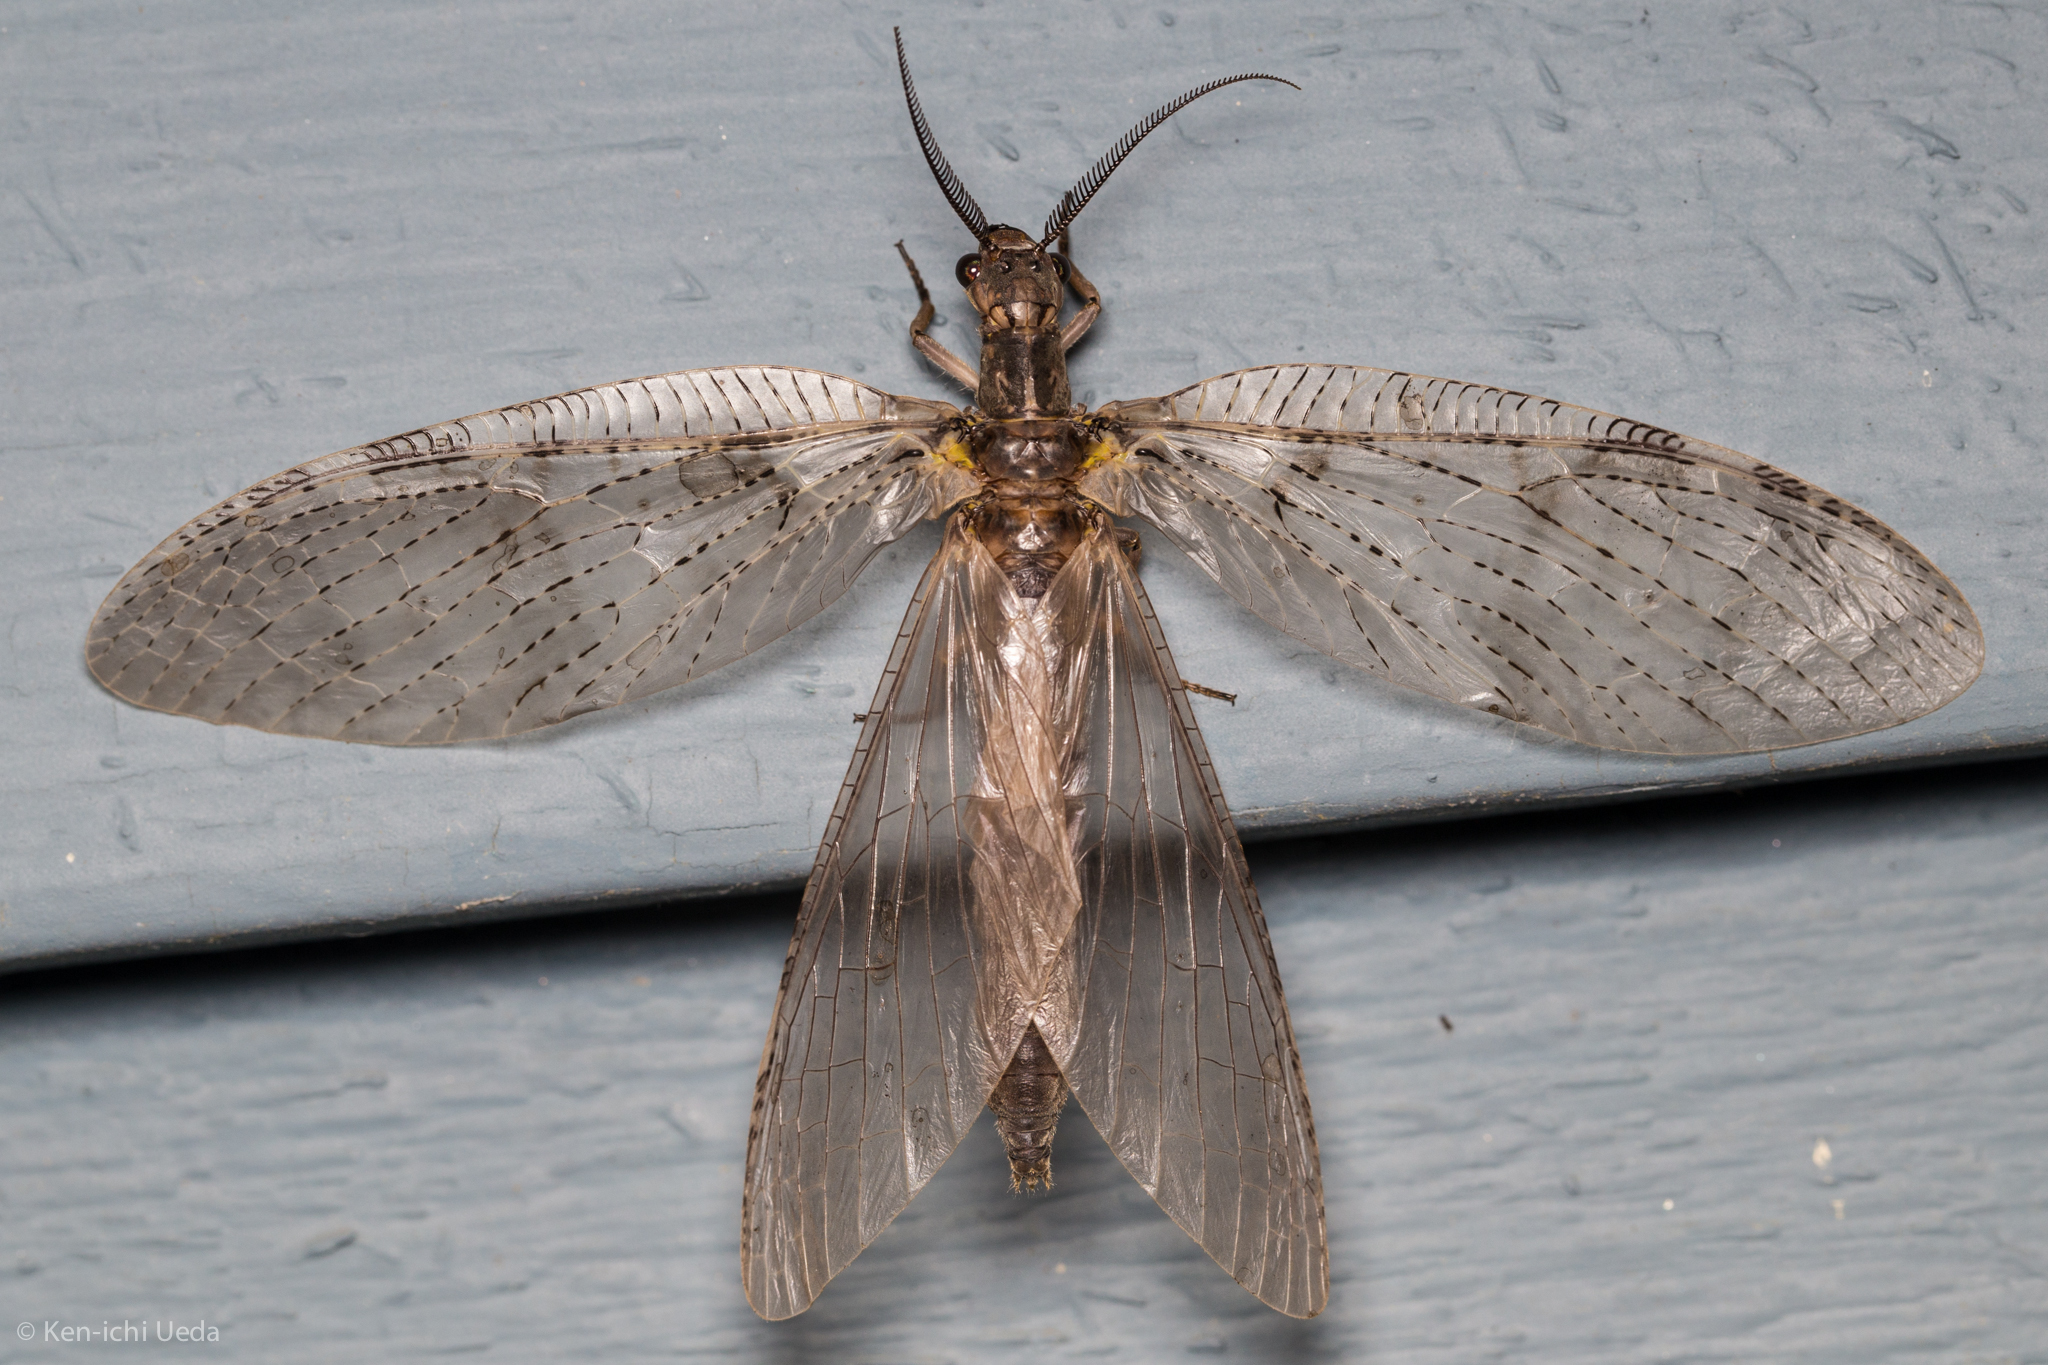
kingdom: Animalia
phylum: Arthropoda
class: Insecta
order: Megaloptera
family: Corydalidae
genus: Chauliodes
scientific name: Chauliodes pectinicornis
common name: Summer fishfly
